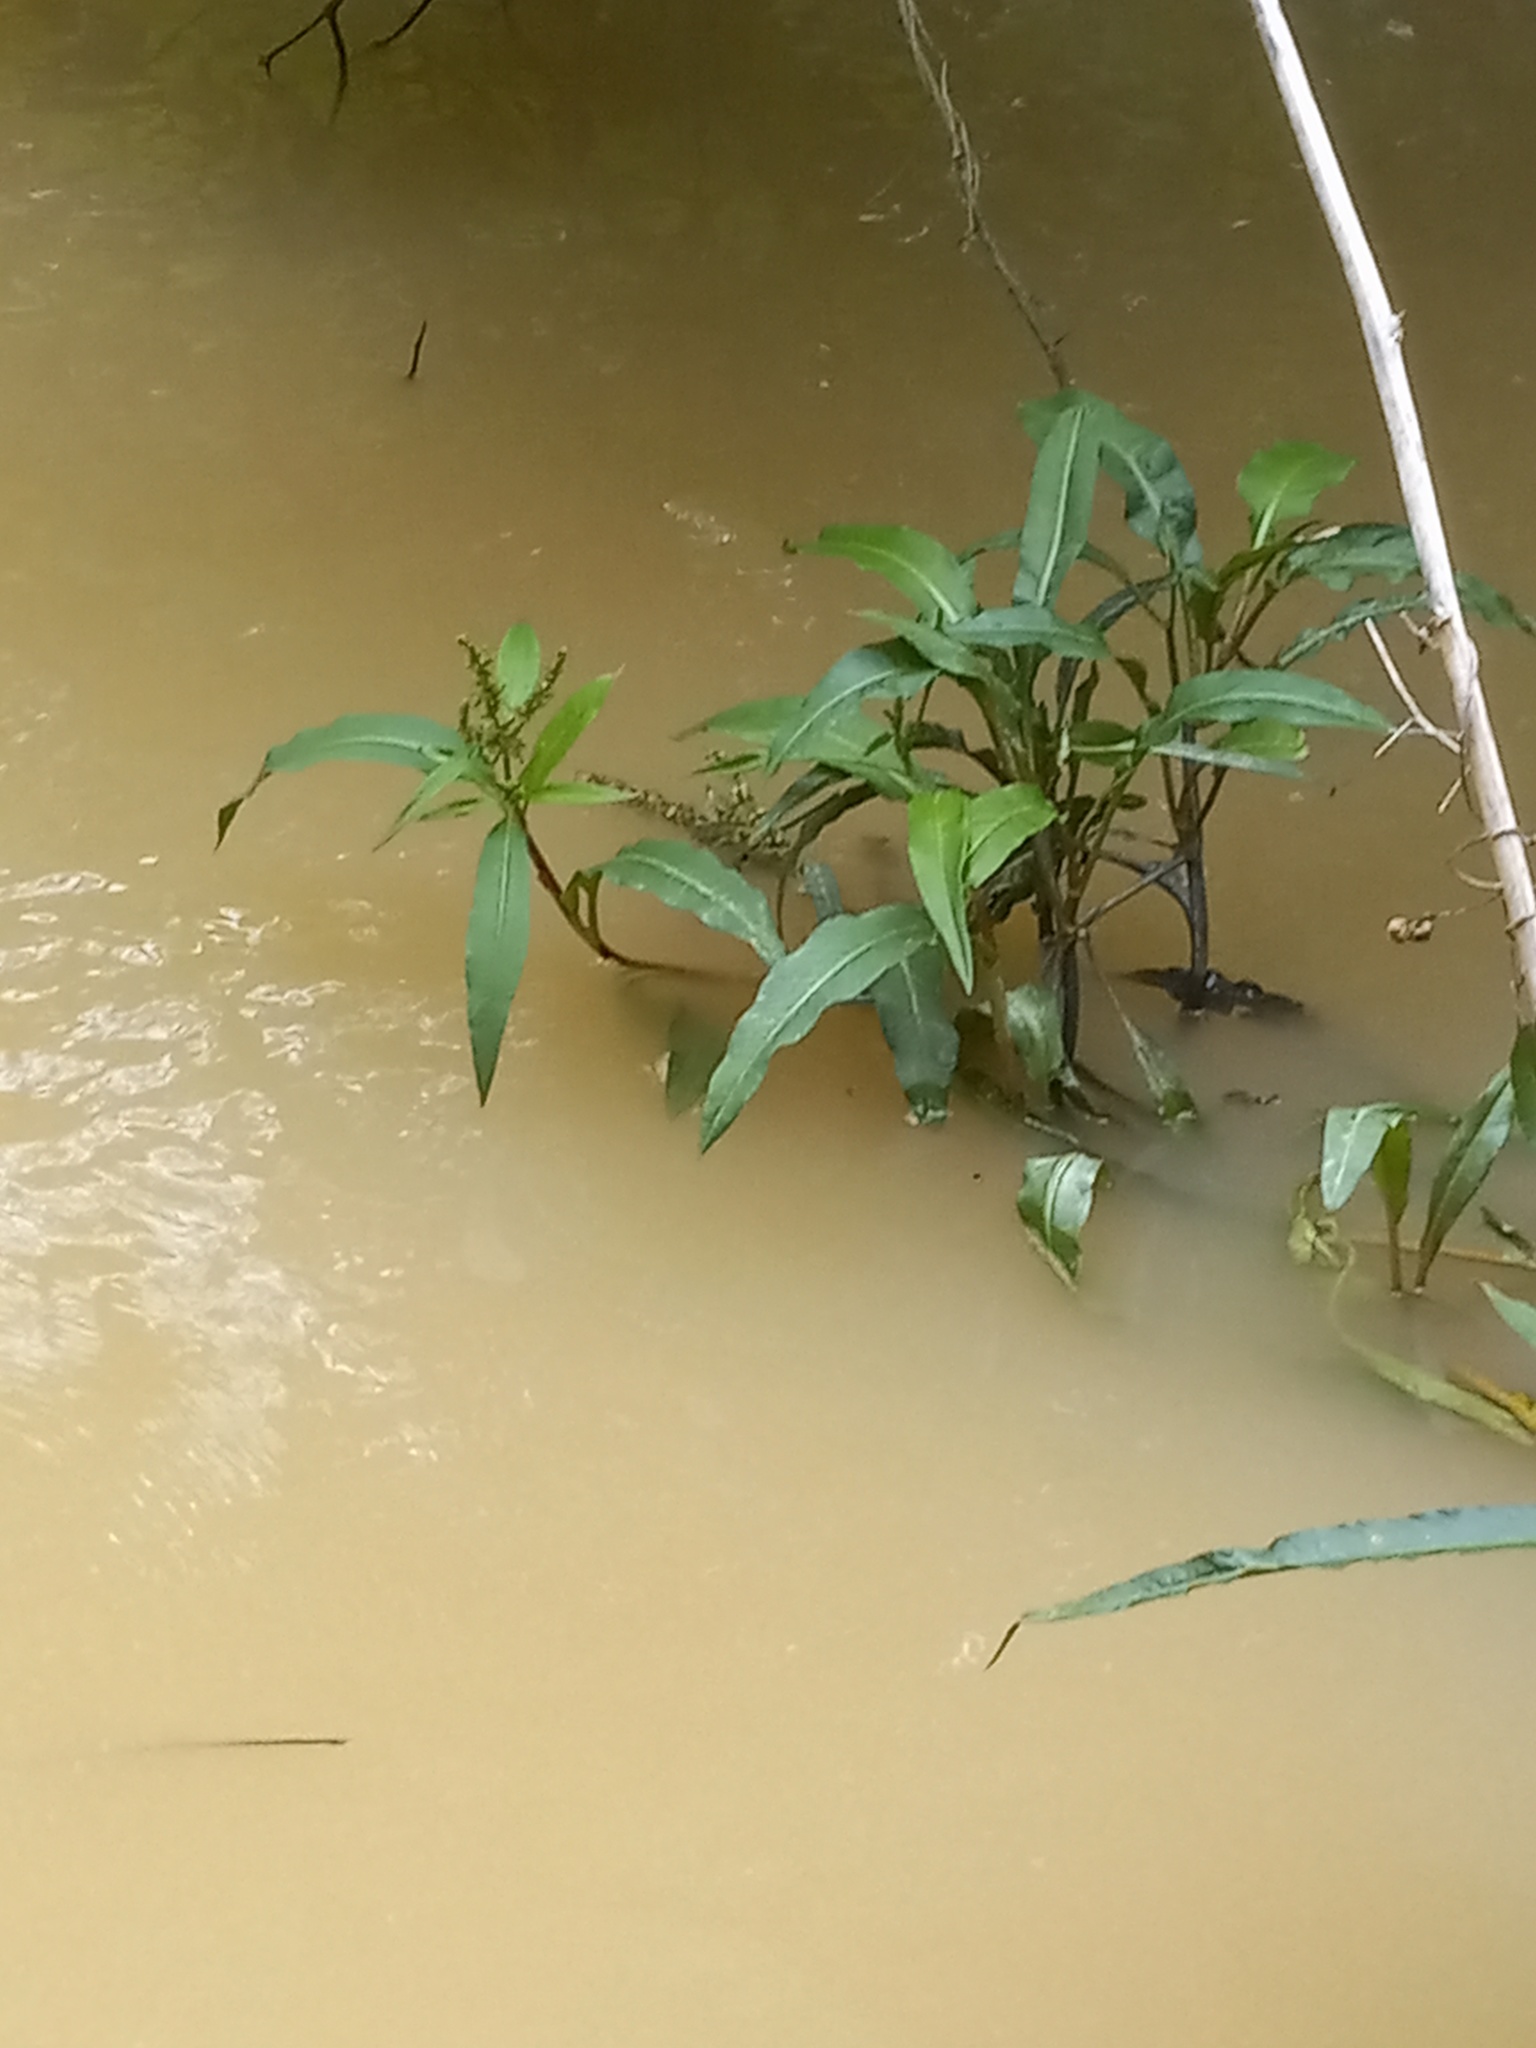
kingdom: Plantae
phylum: Tracheophyta
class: Magnoliopsida
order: Caryophyllales
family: Polygonaceae
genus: Rumex
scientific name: Rumex verticillatus
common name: Swamp dock
